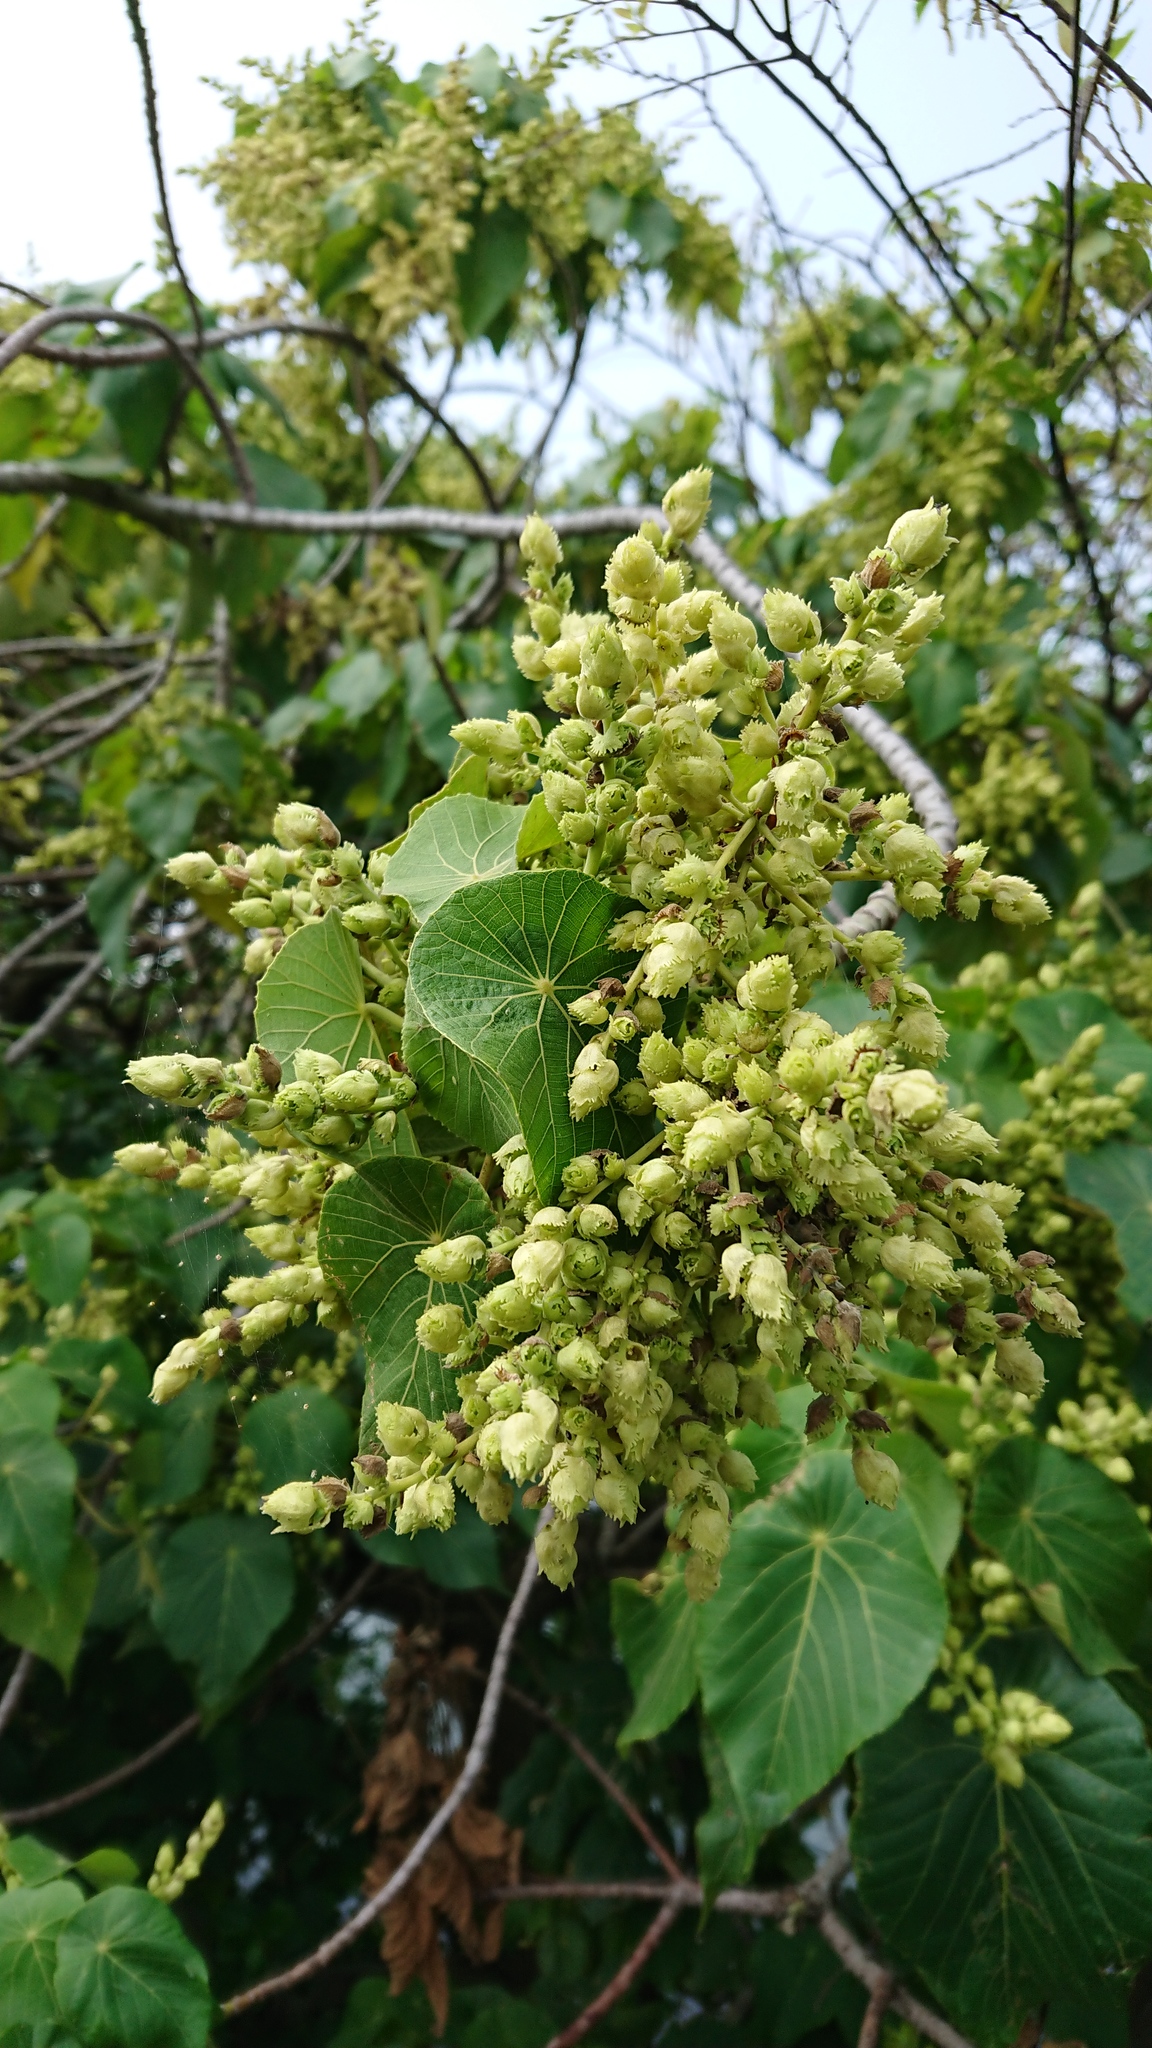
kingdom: Plantae
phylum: Tracheophyta
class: Magnoliopsida
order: Malpighiales
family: Euphorbiaceae
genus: Macaranga
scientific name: Macaranga tanarius
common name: Parasol leaf tree
